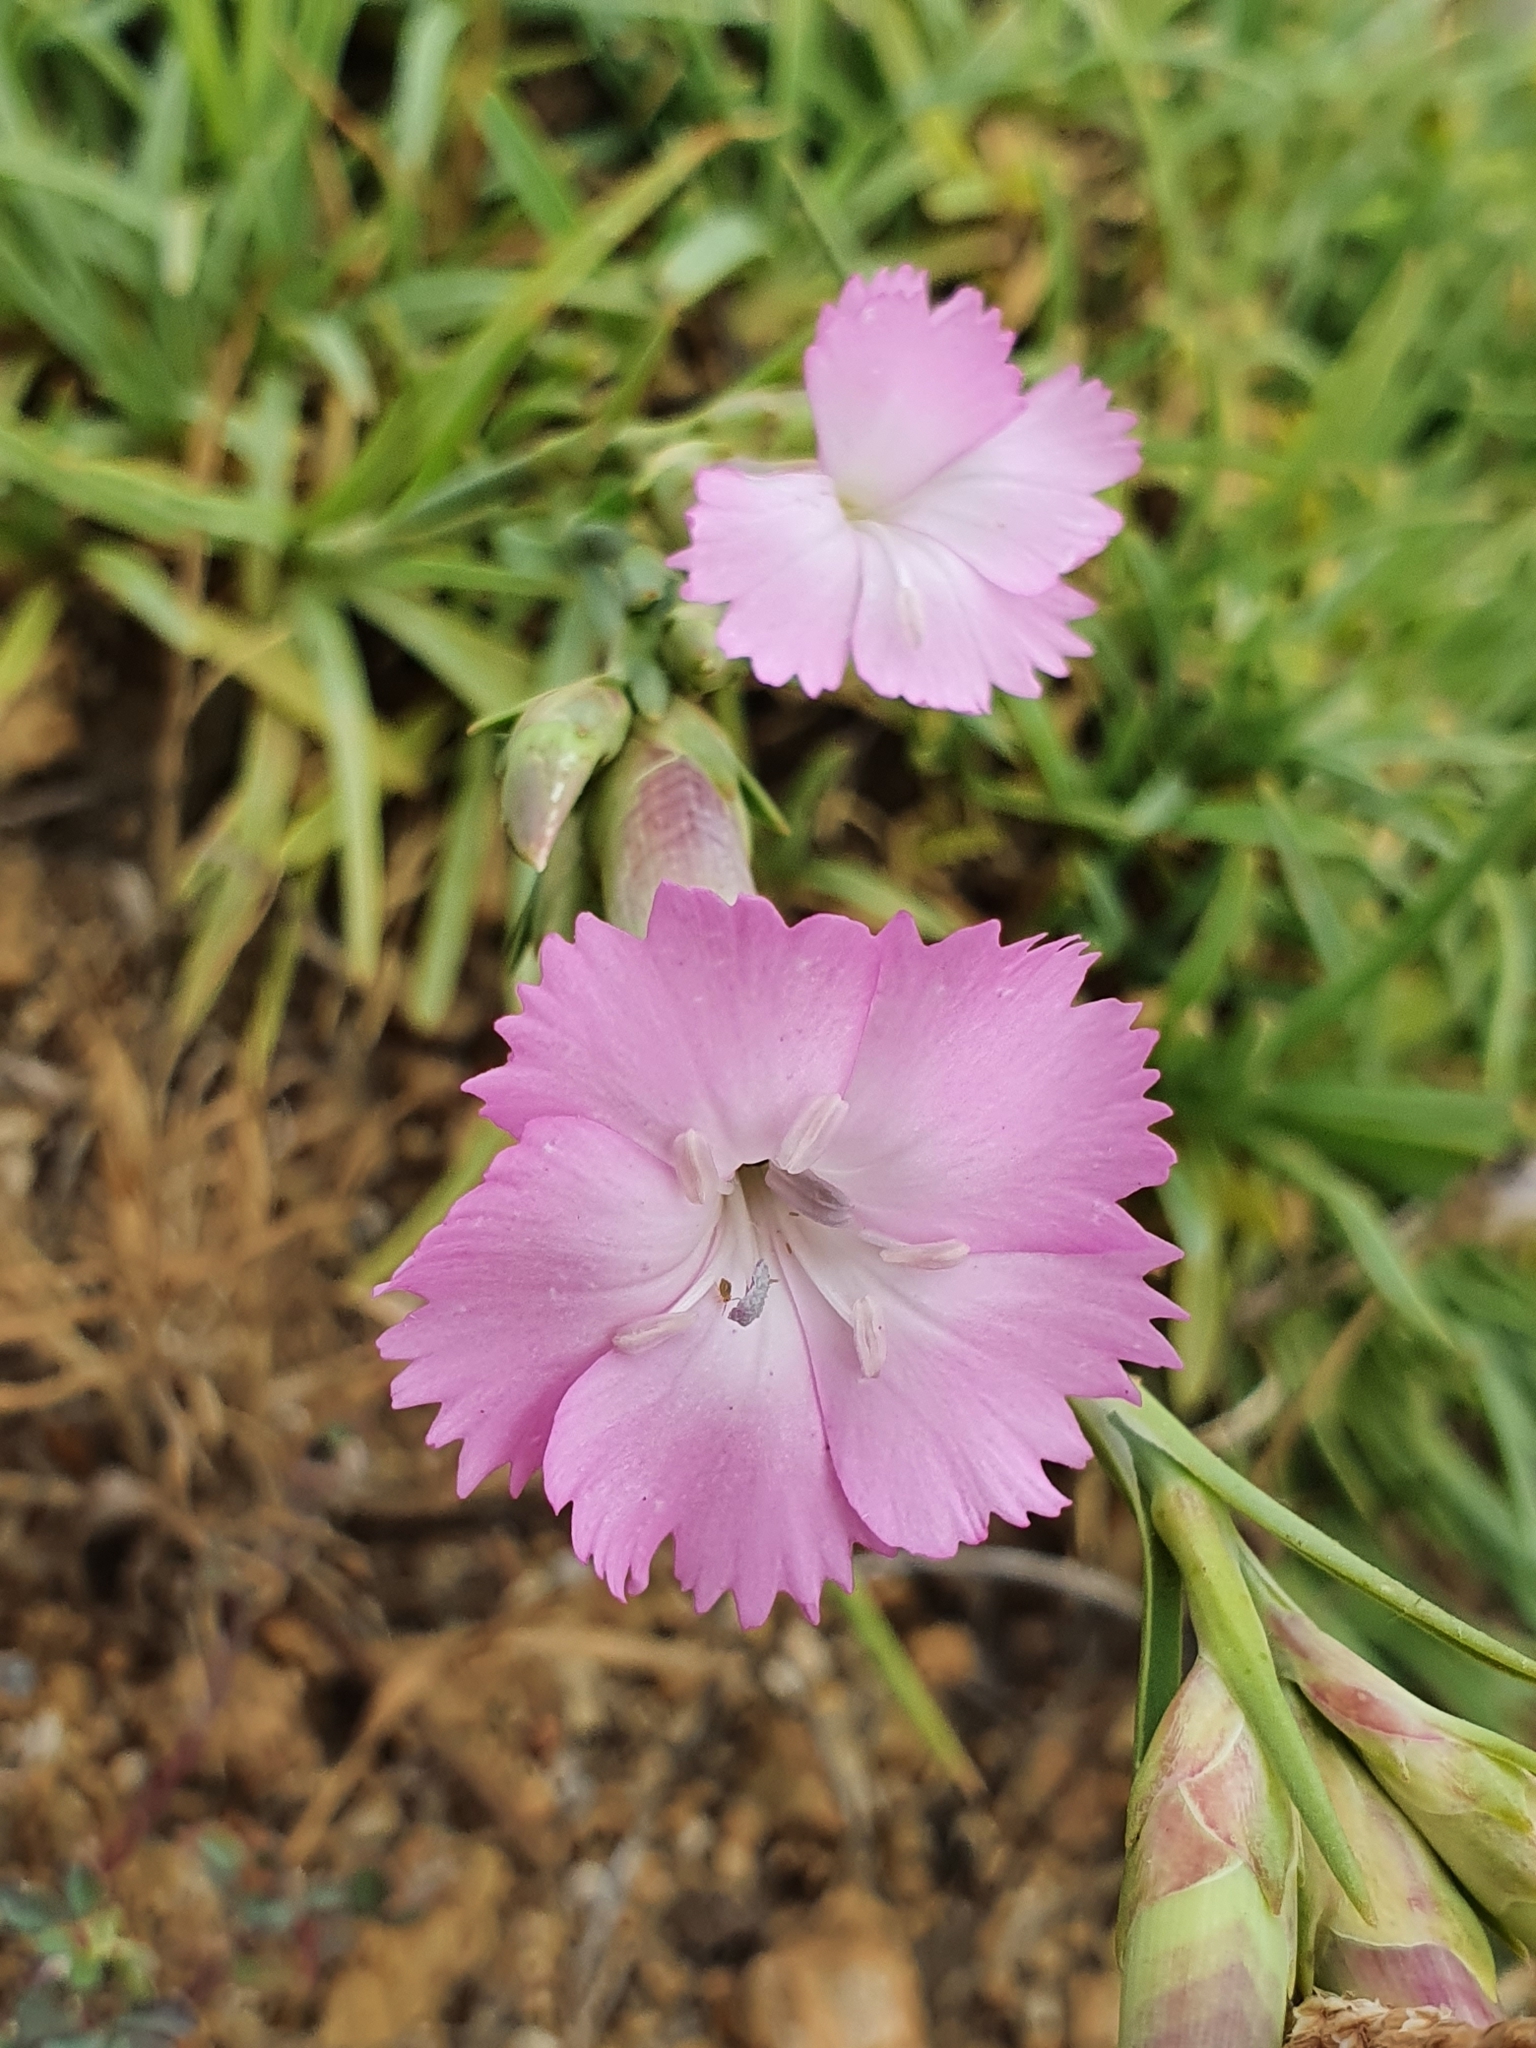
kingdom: Plantae
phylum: Tracheophyta
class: Magnoliopsida
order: Caryophyllales
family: Caryophyllaceae
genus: Dianthus
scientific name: Dianthus sylvestris
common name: Wood pink
